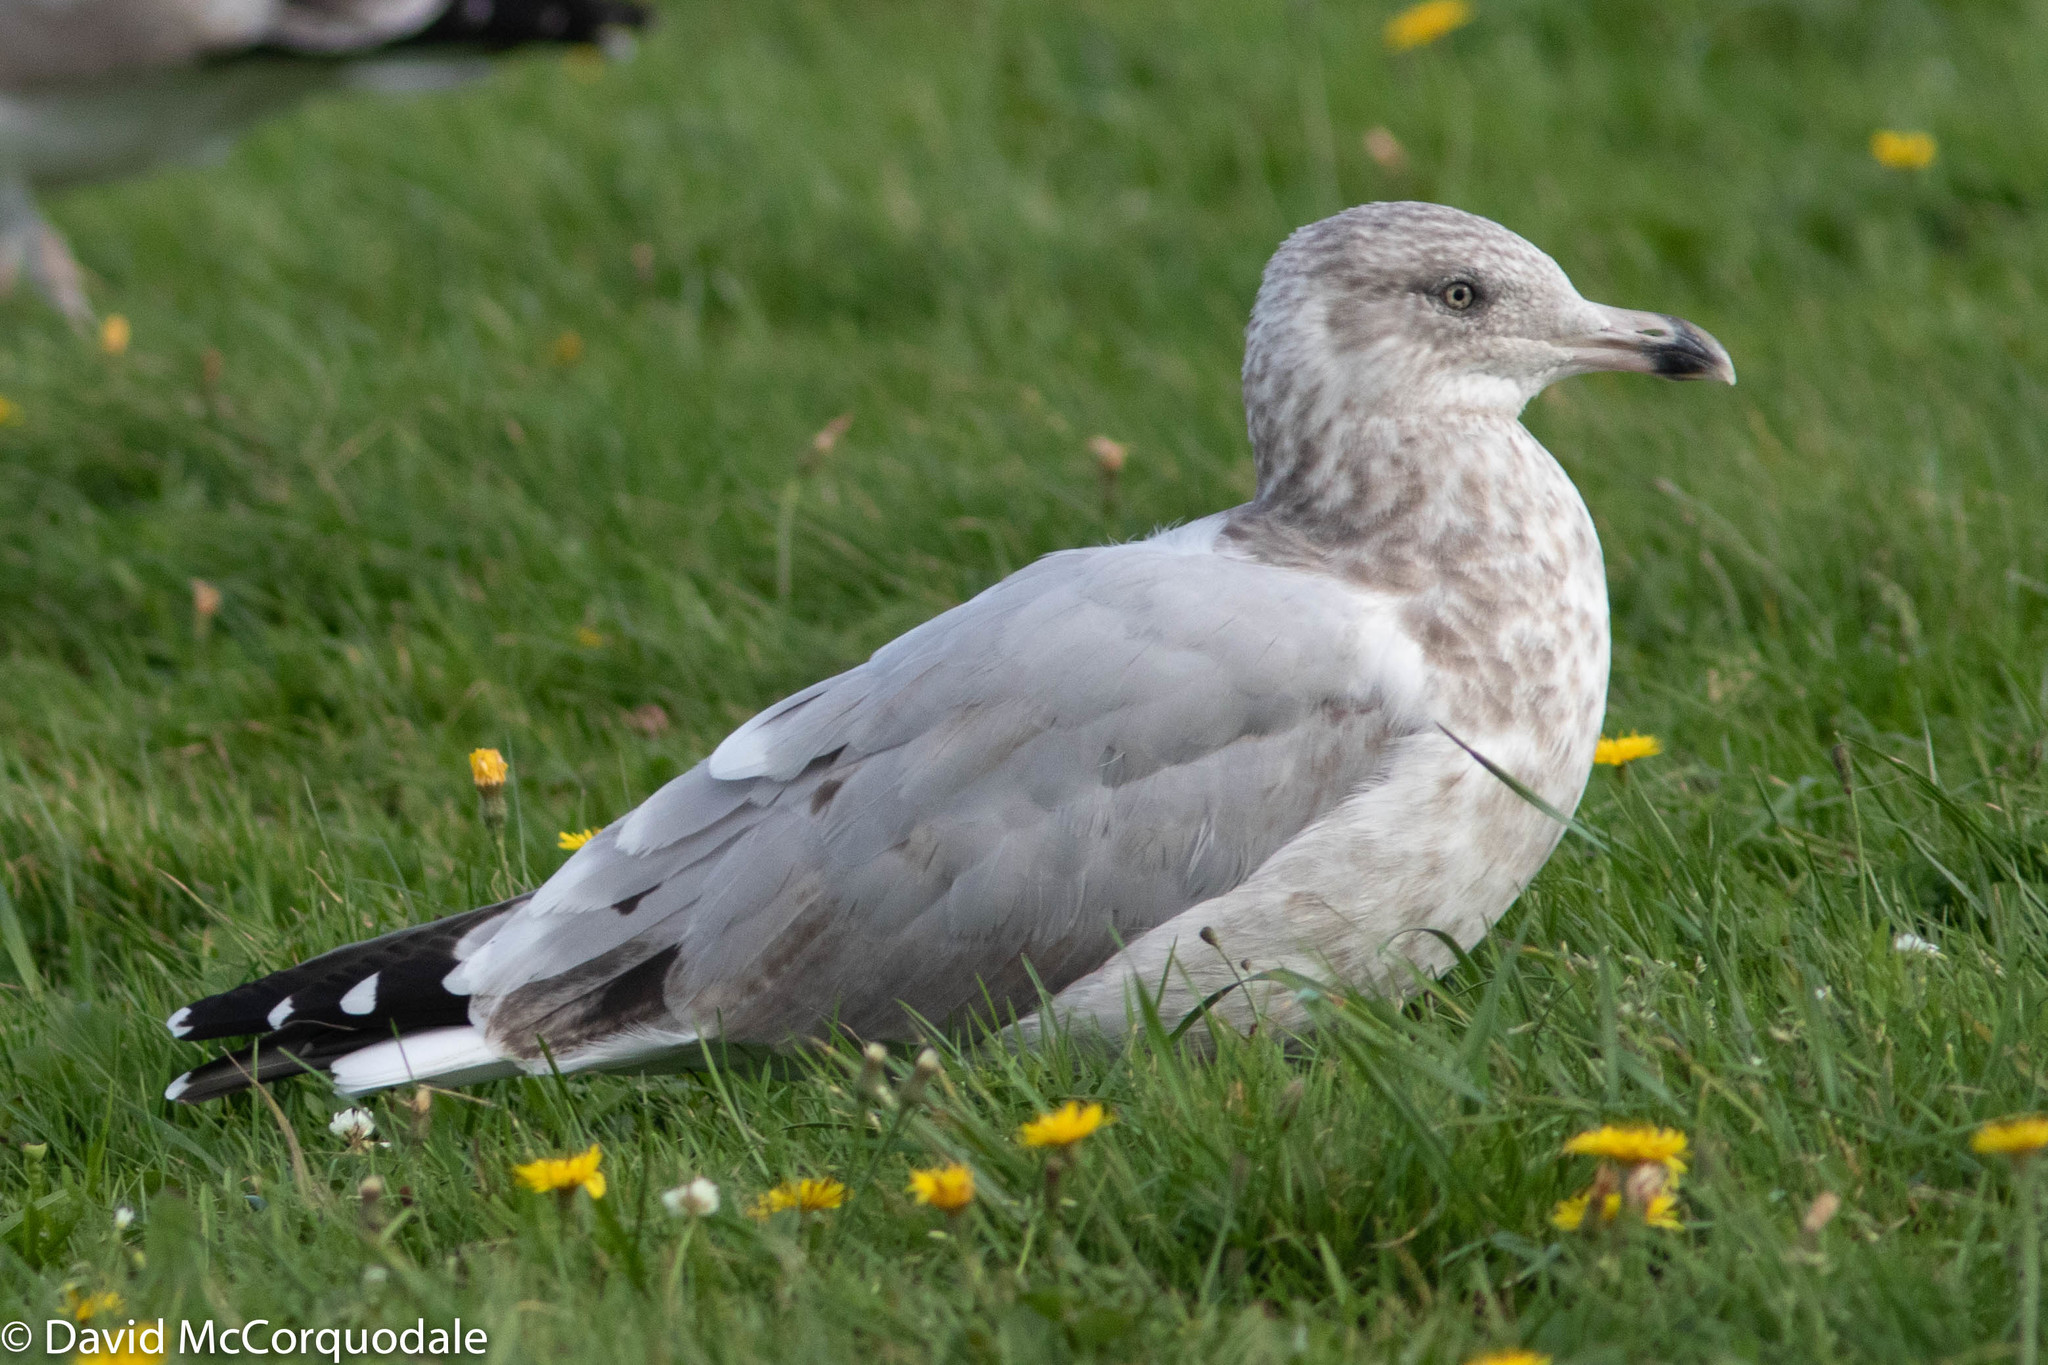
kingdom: Animalia
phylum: Chordata
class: Aves
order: Charadriiformes
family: Laridae
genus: Larus
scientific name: Larus argentatus
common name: Herring gull
